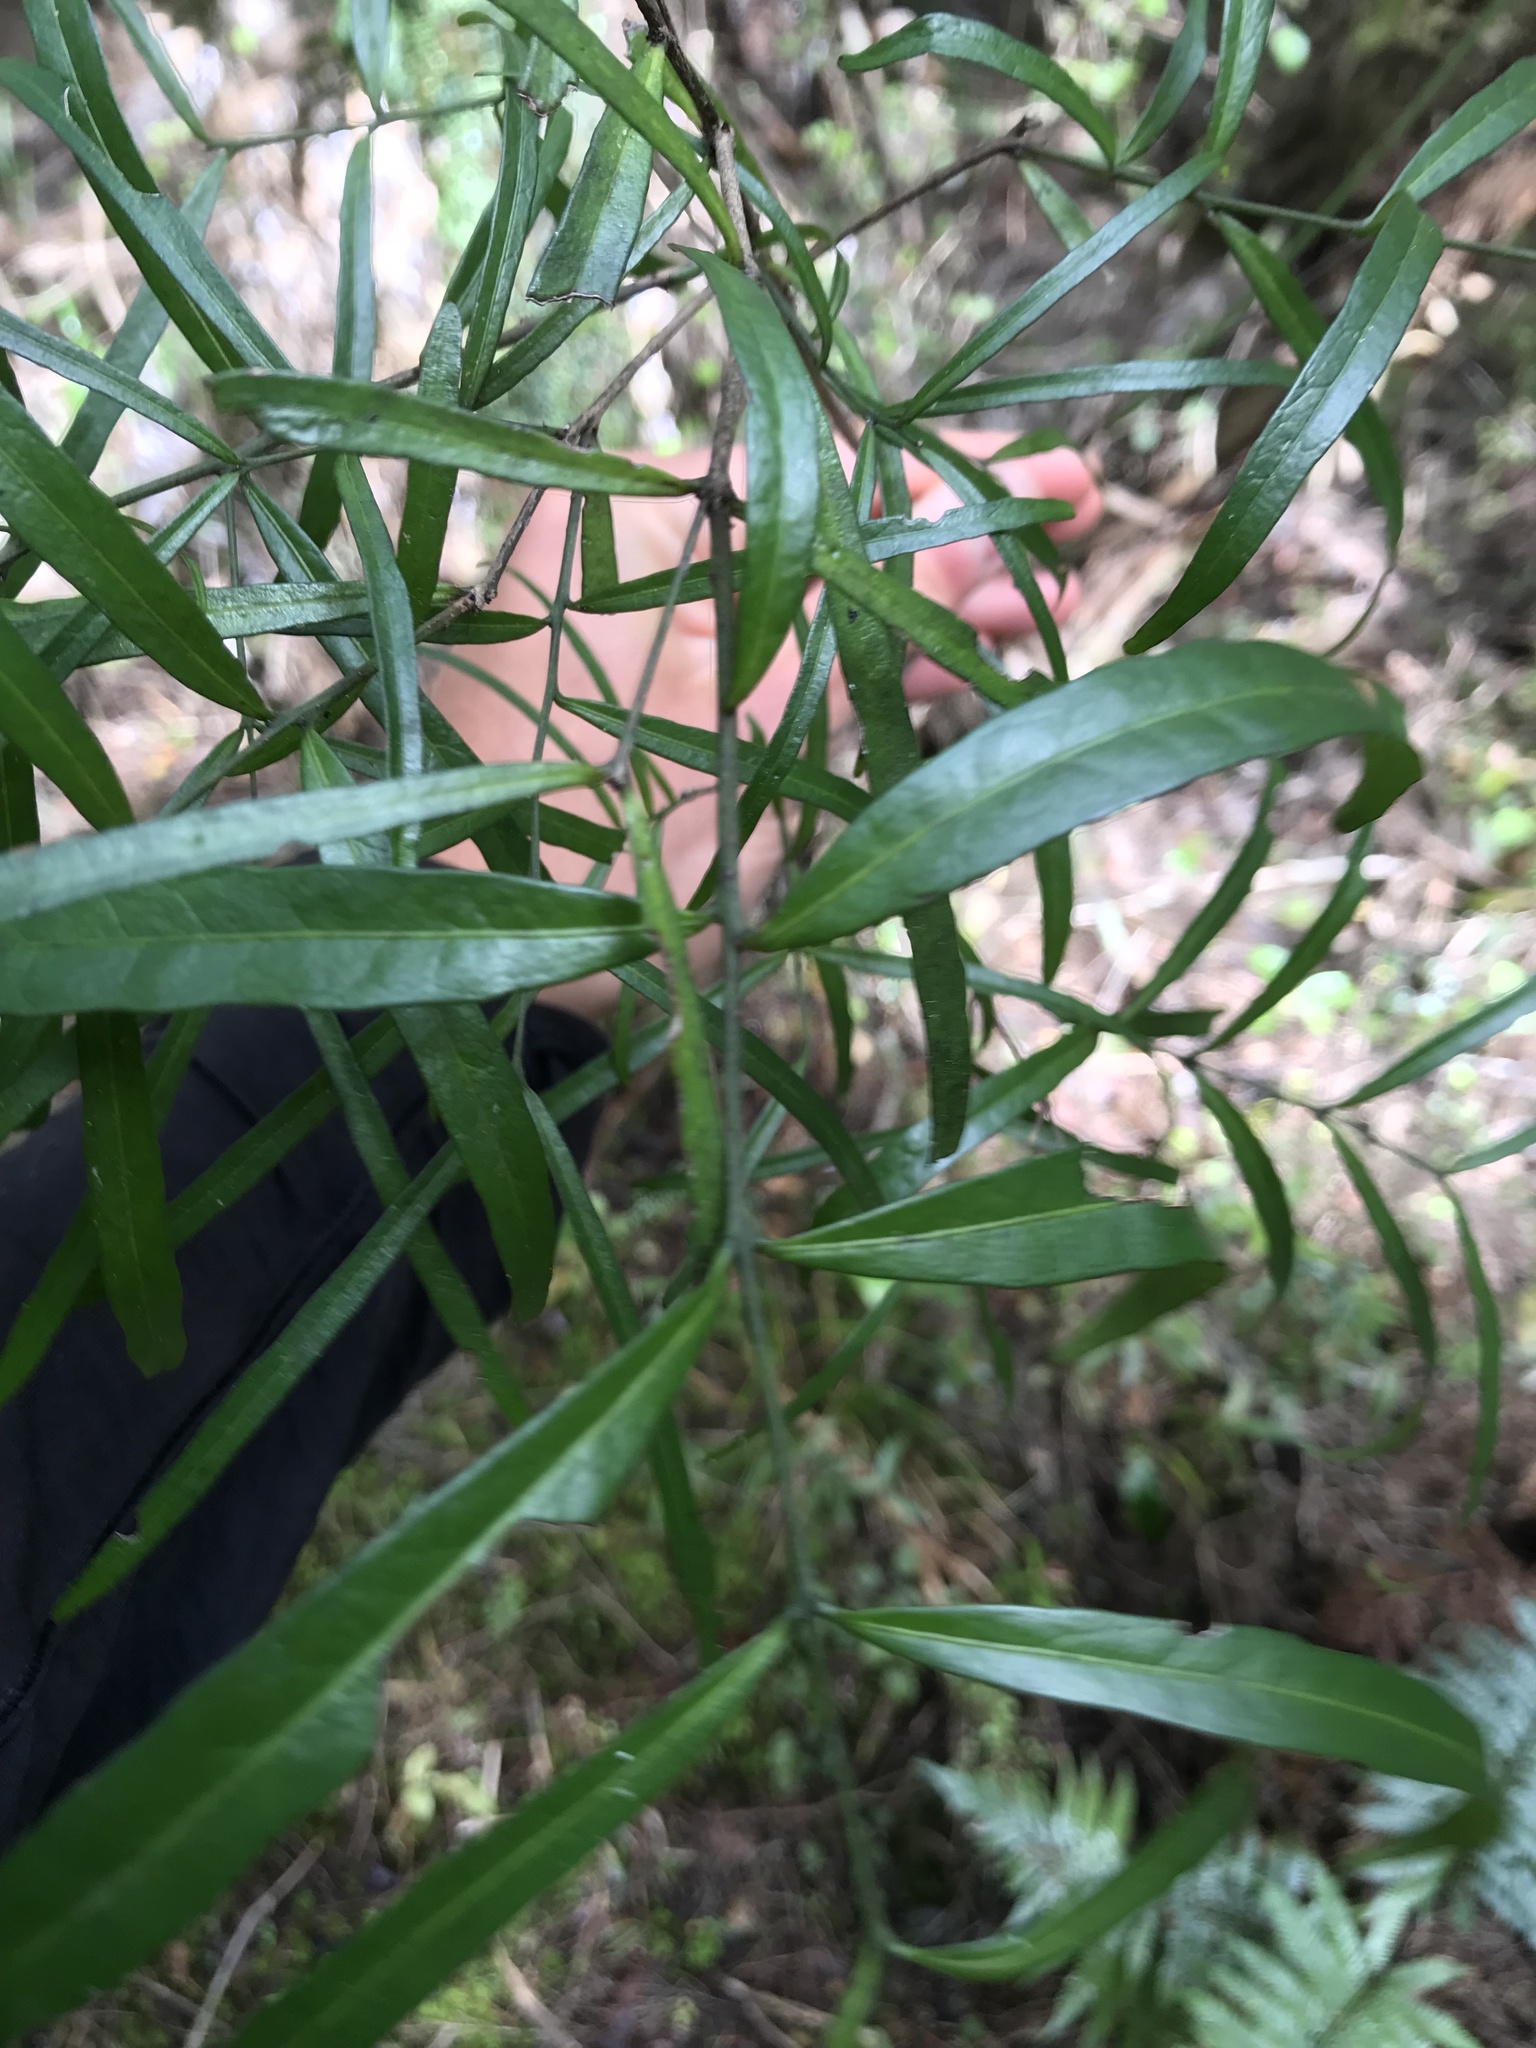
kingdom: Plantae
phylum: Tracheophyta
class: Magnoliopsida
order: Santalales
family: Nanodeaceae
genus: Mida
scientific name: Mida salicifolia
